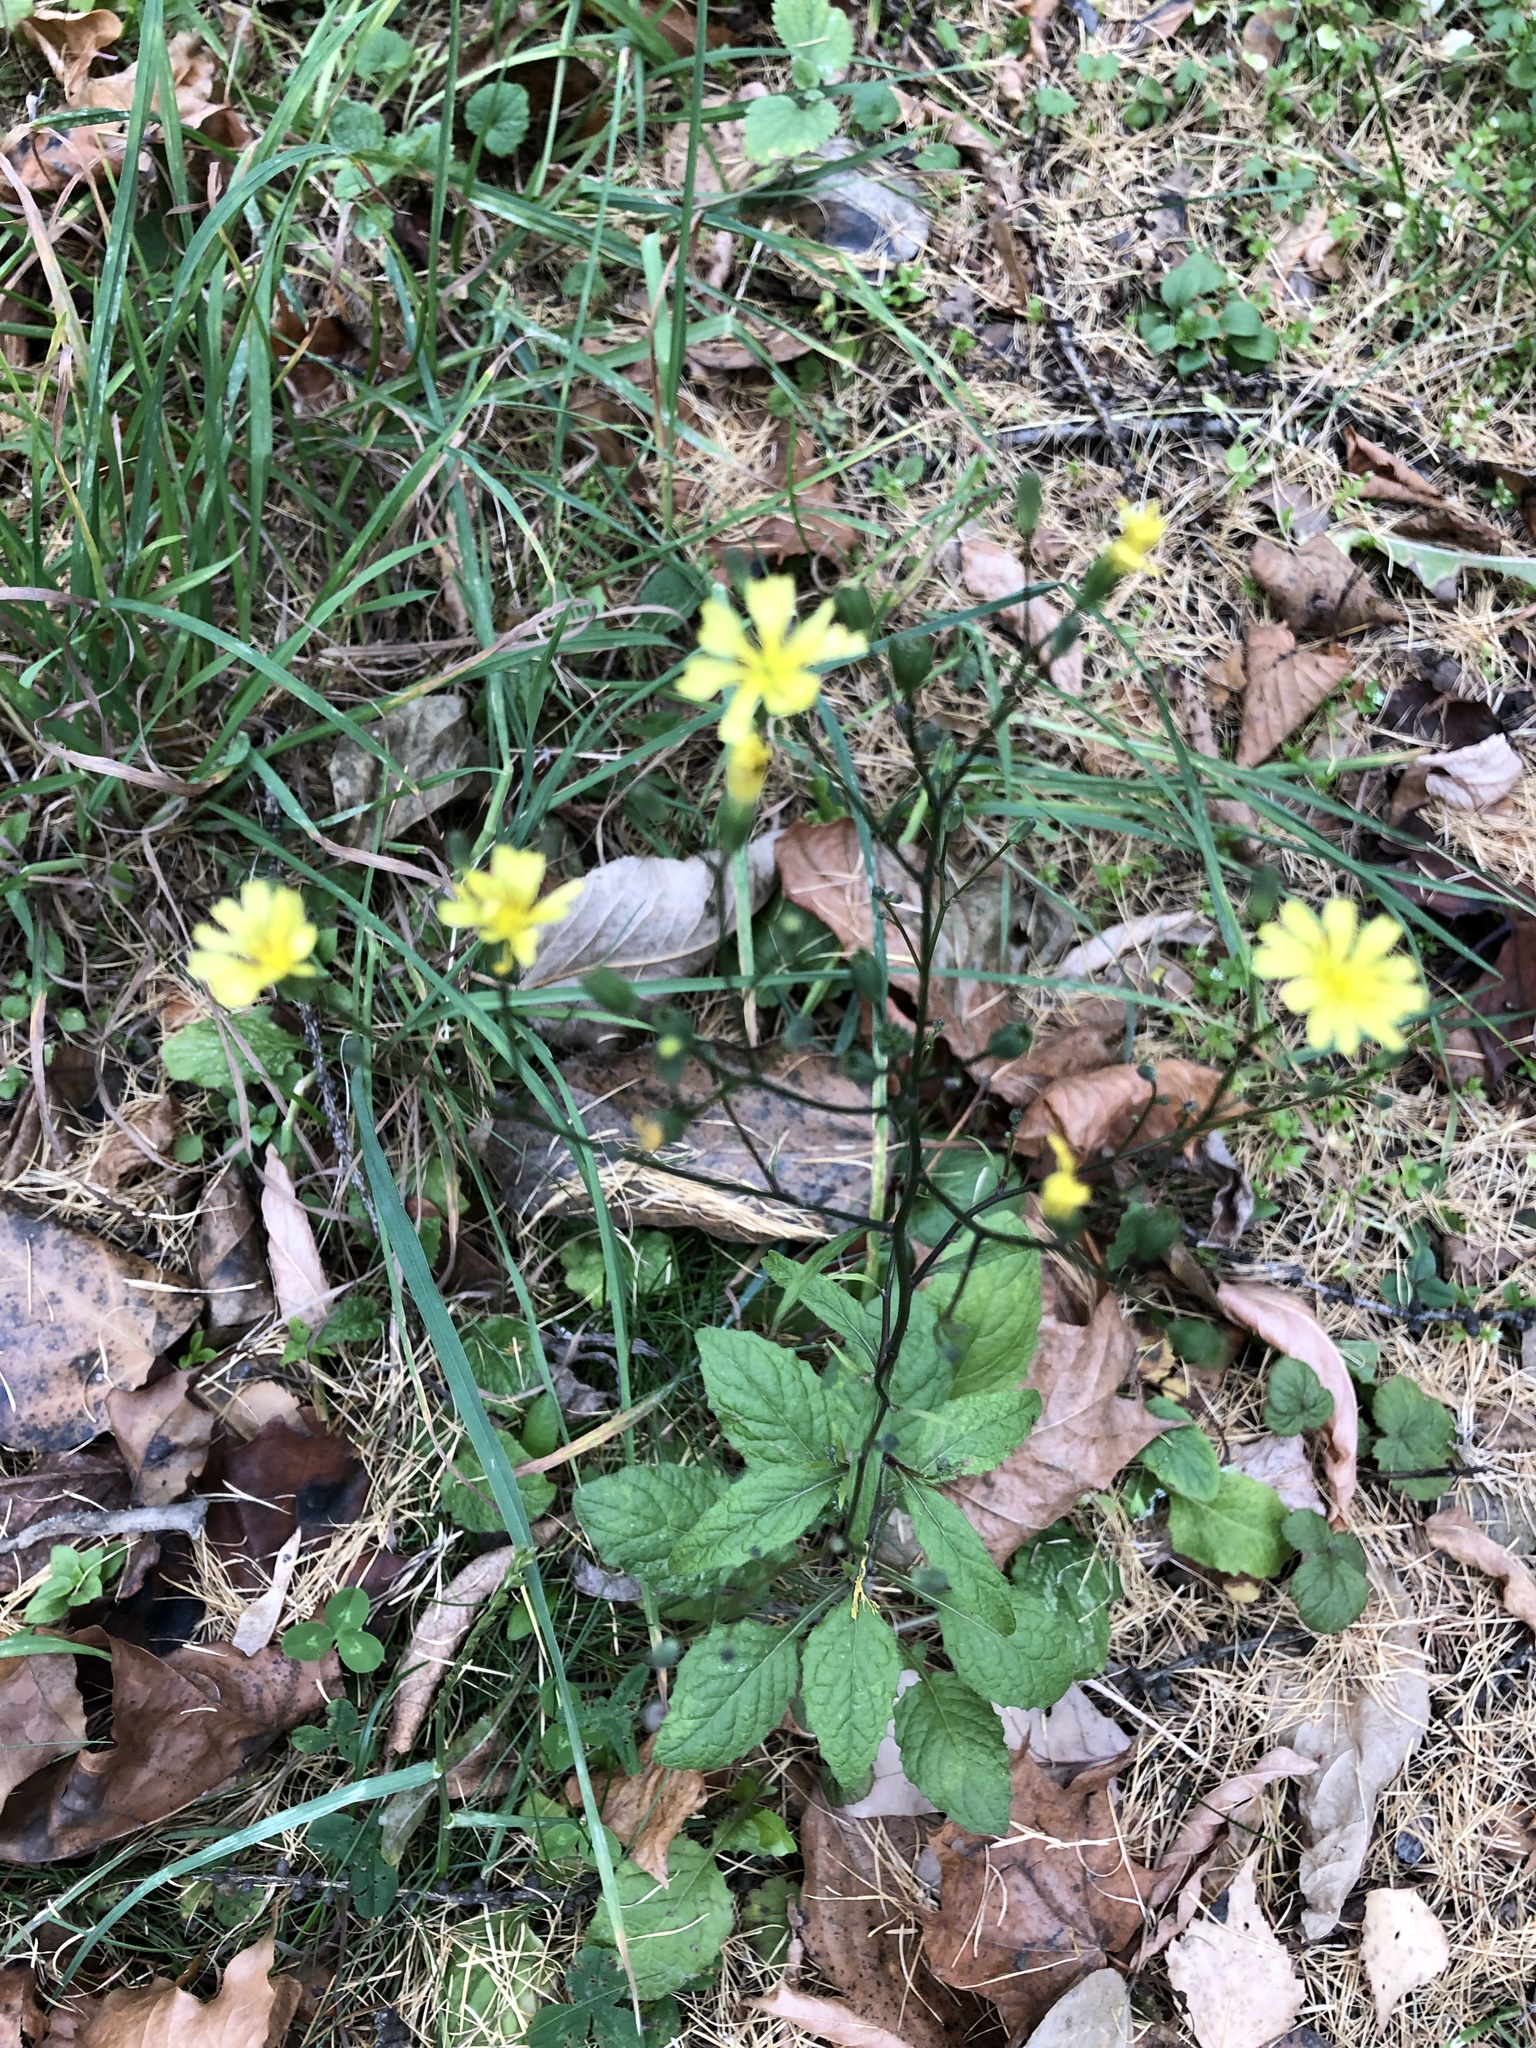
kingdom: Plantae
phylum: Tracheophyta
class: Magnoliopsida
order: Asterales
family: Asteraceae
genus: Lapsana
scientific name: Lapsana communis
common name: Nipplewort
